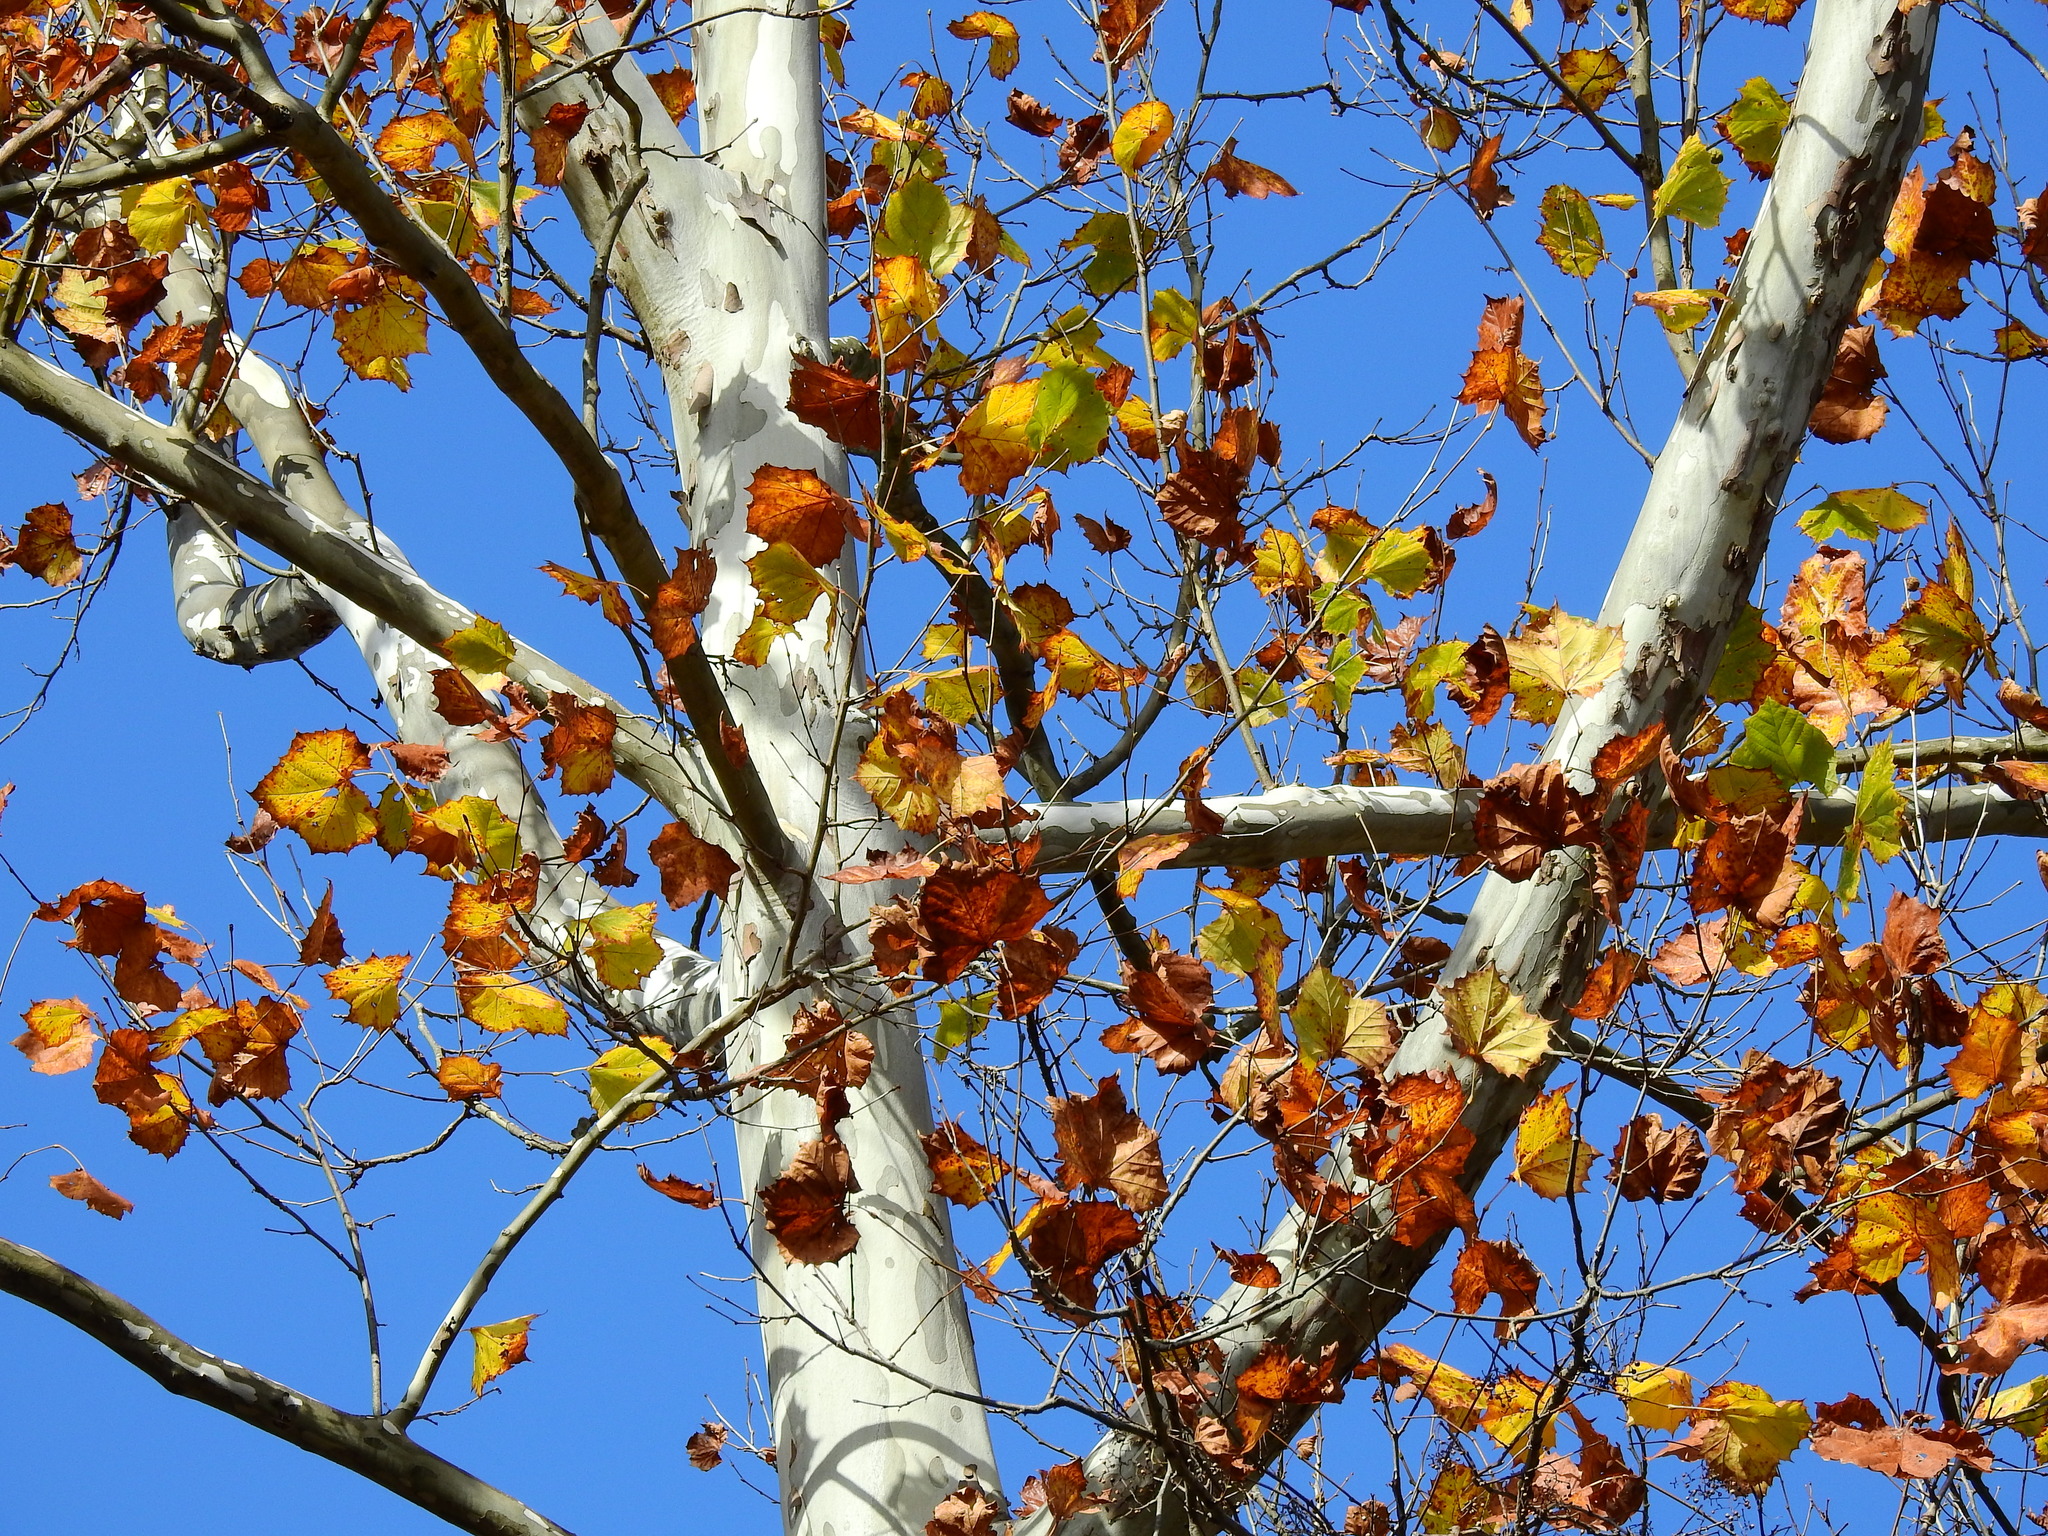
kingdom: Plantae
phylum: Tracheophyta
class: Magnoliopsida
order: Proteales
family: Platanaceae
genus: Platanus
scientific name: Platanus occidentalis
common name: American sycamore
